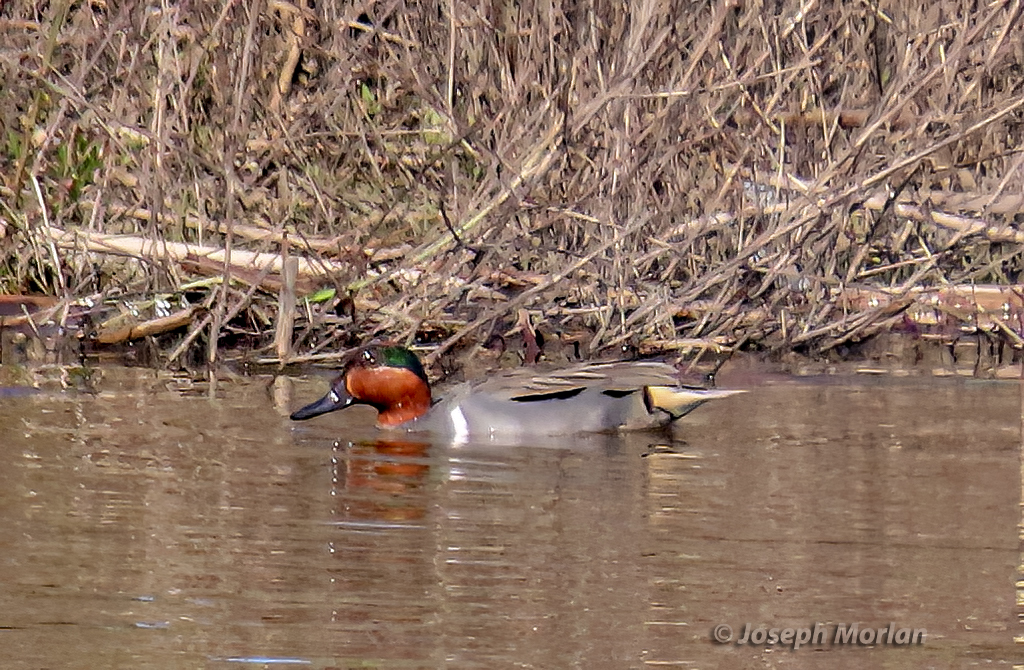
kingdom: Animalia
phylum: Chordata
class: Aves
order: Anseriformes
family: Anatidae
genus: Anas
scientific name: Anas crecca
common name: Eurasian teal
